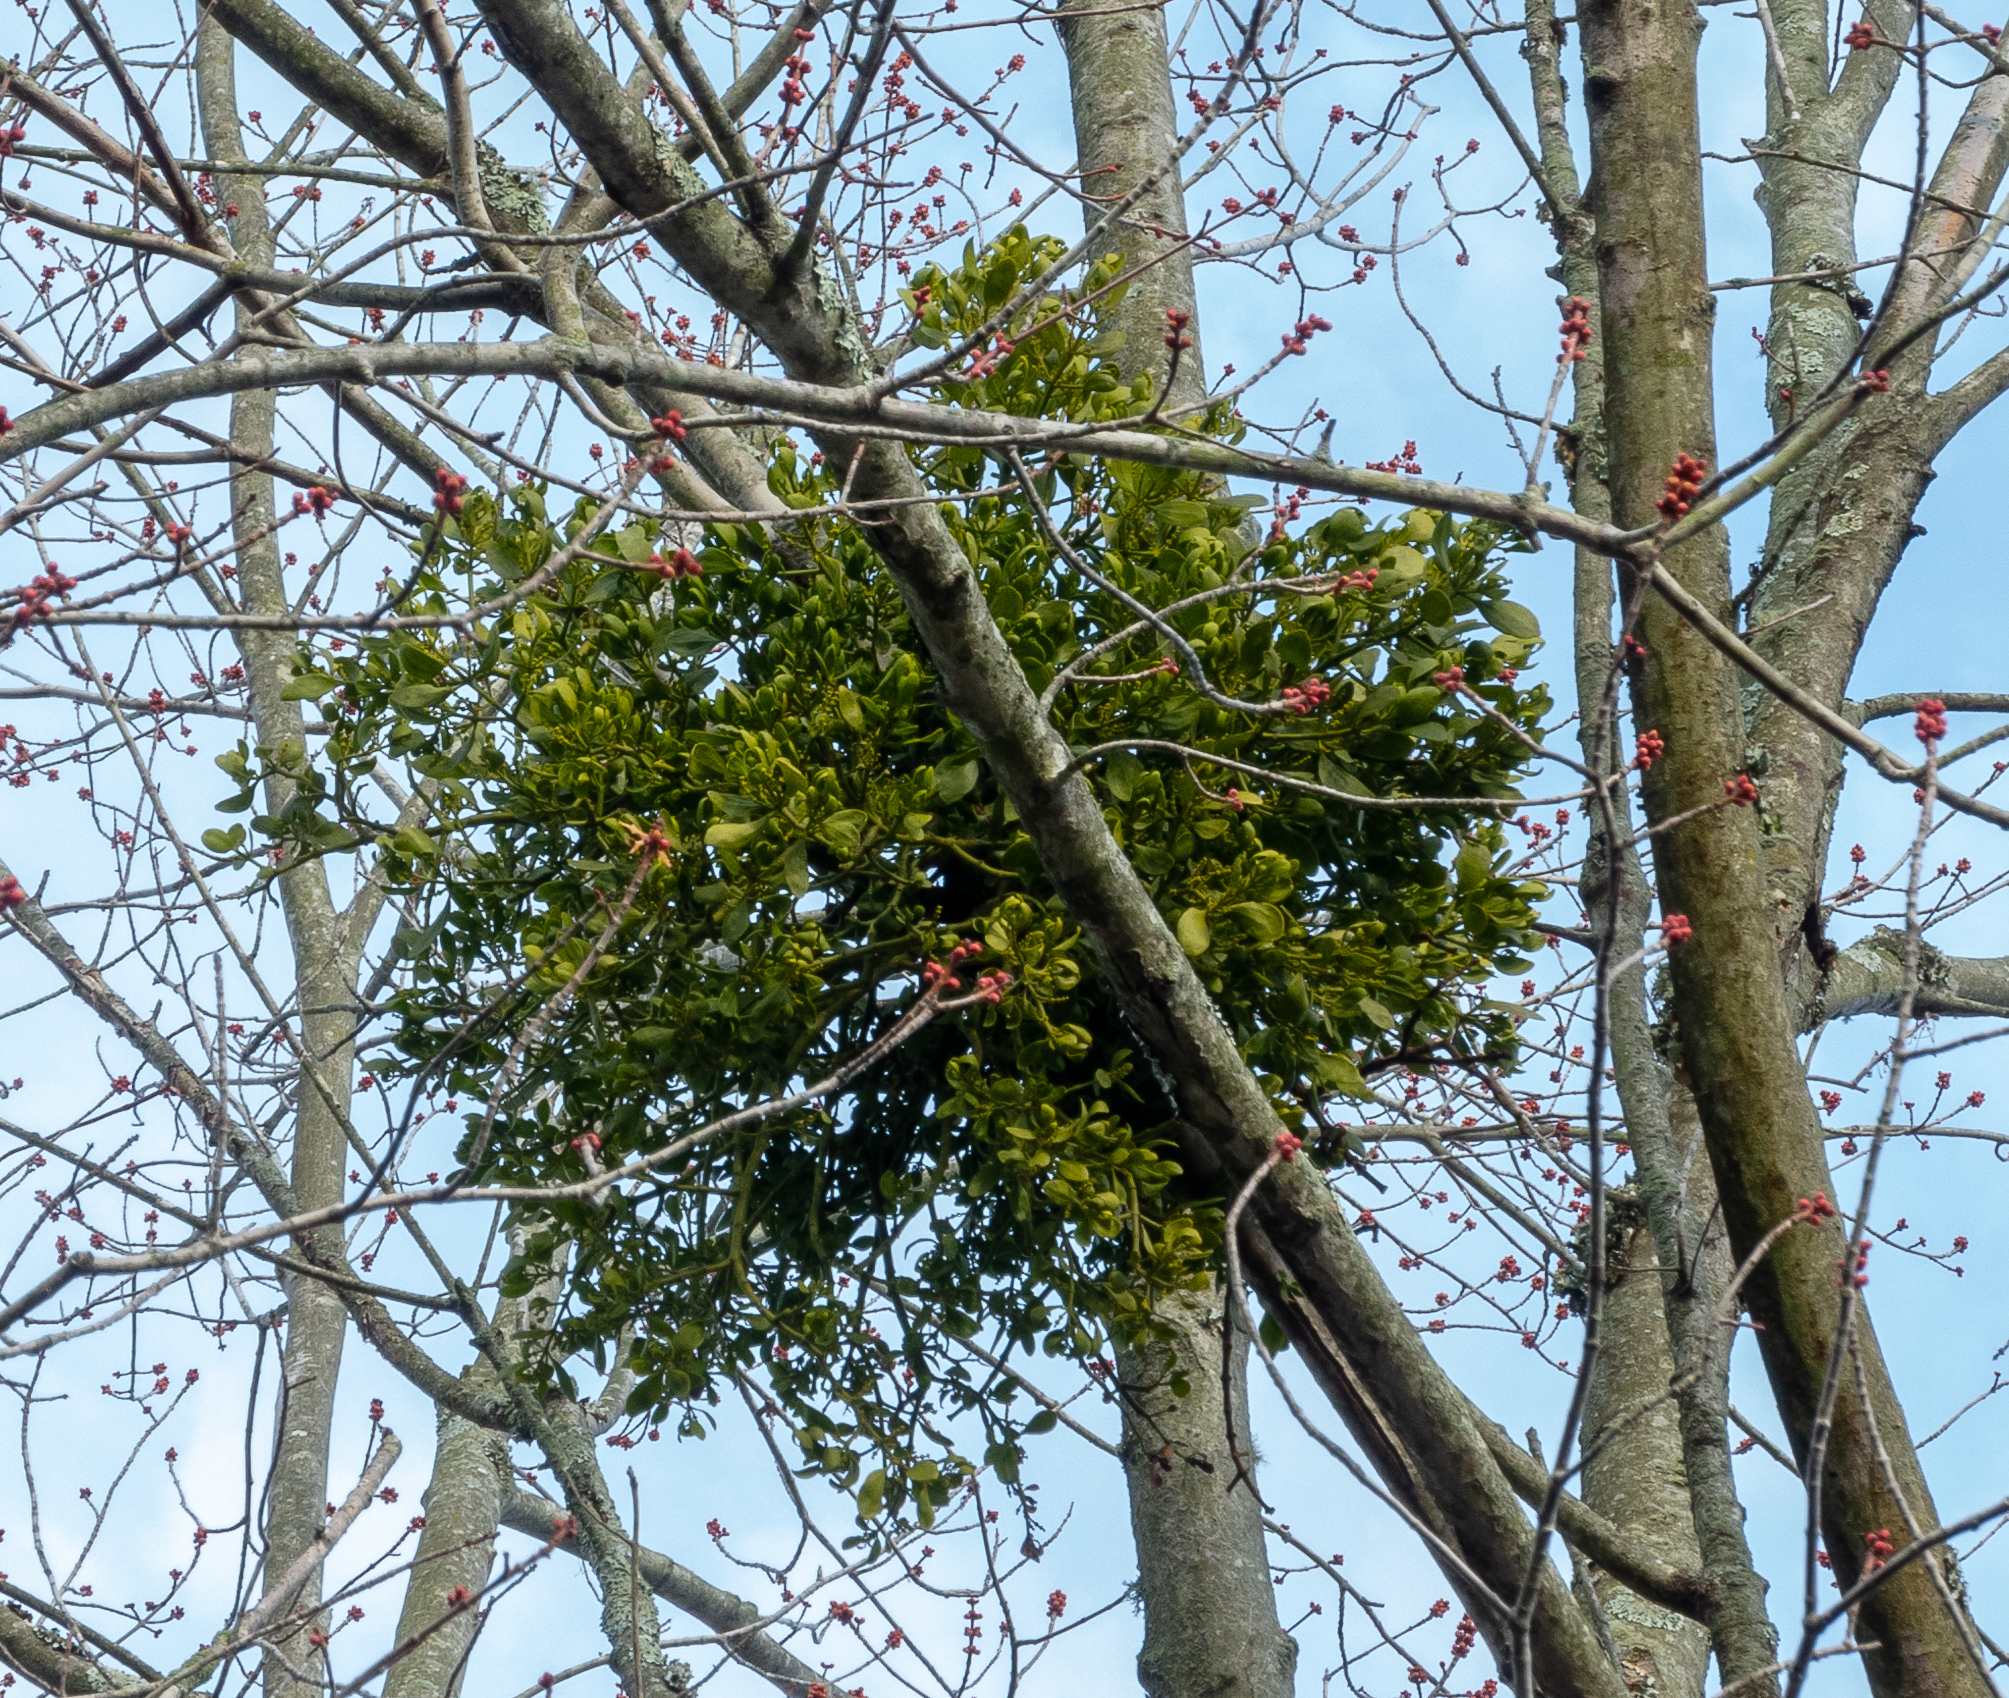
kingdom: Plantae
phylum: Tracheophyta
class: Magnoliopsida
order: Santalales
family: Viscaceae
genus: Phoradendron
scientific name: Phoradendron leucarpum
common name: Pacific mistletoe
